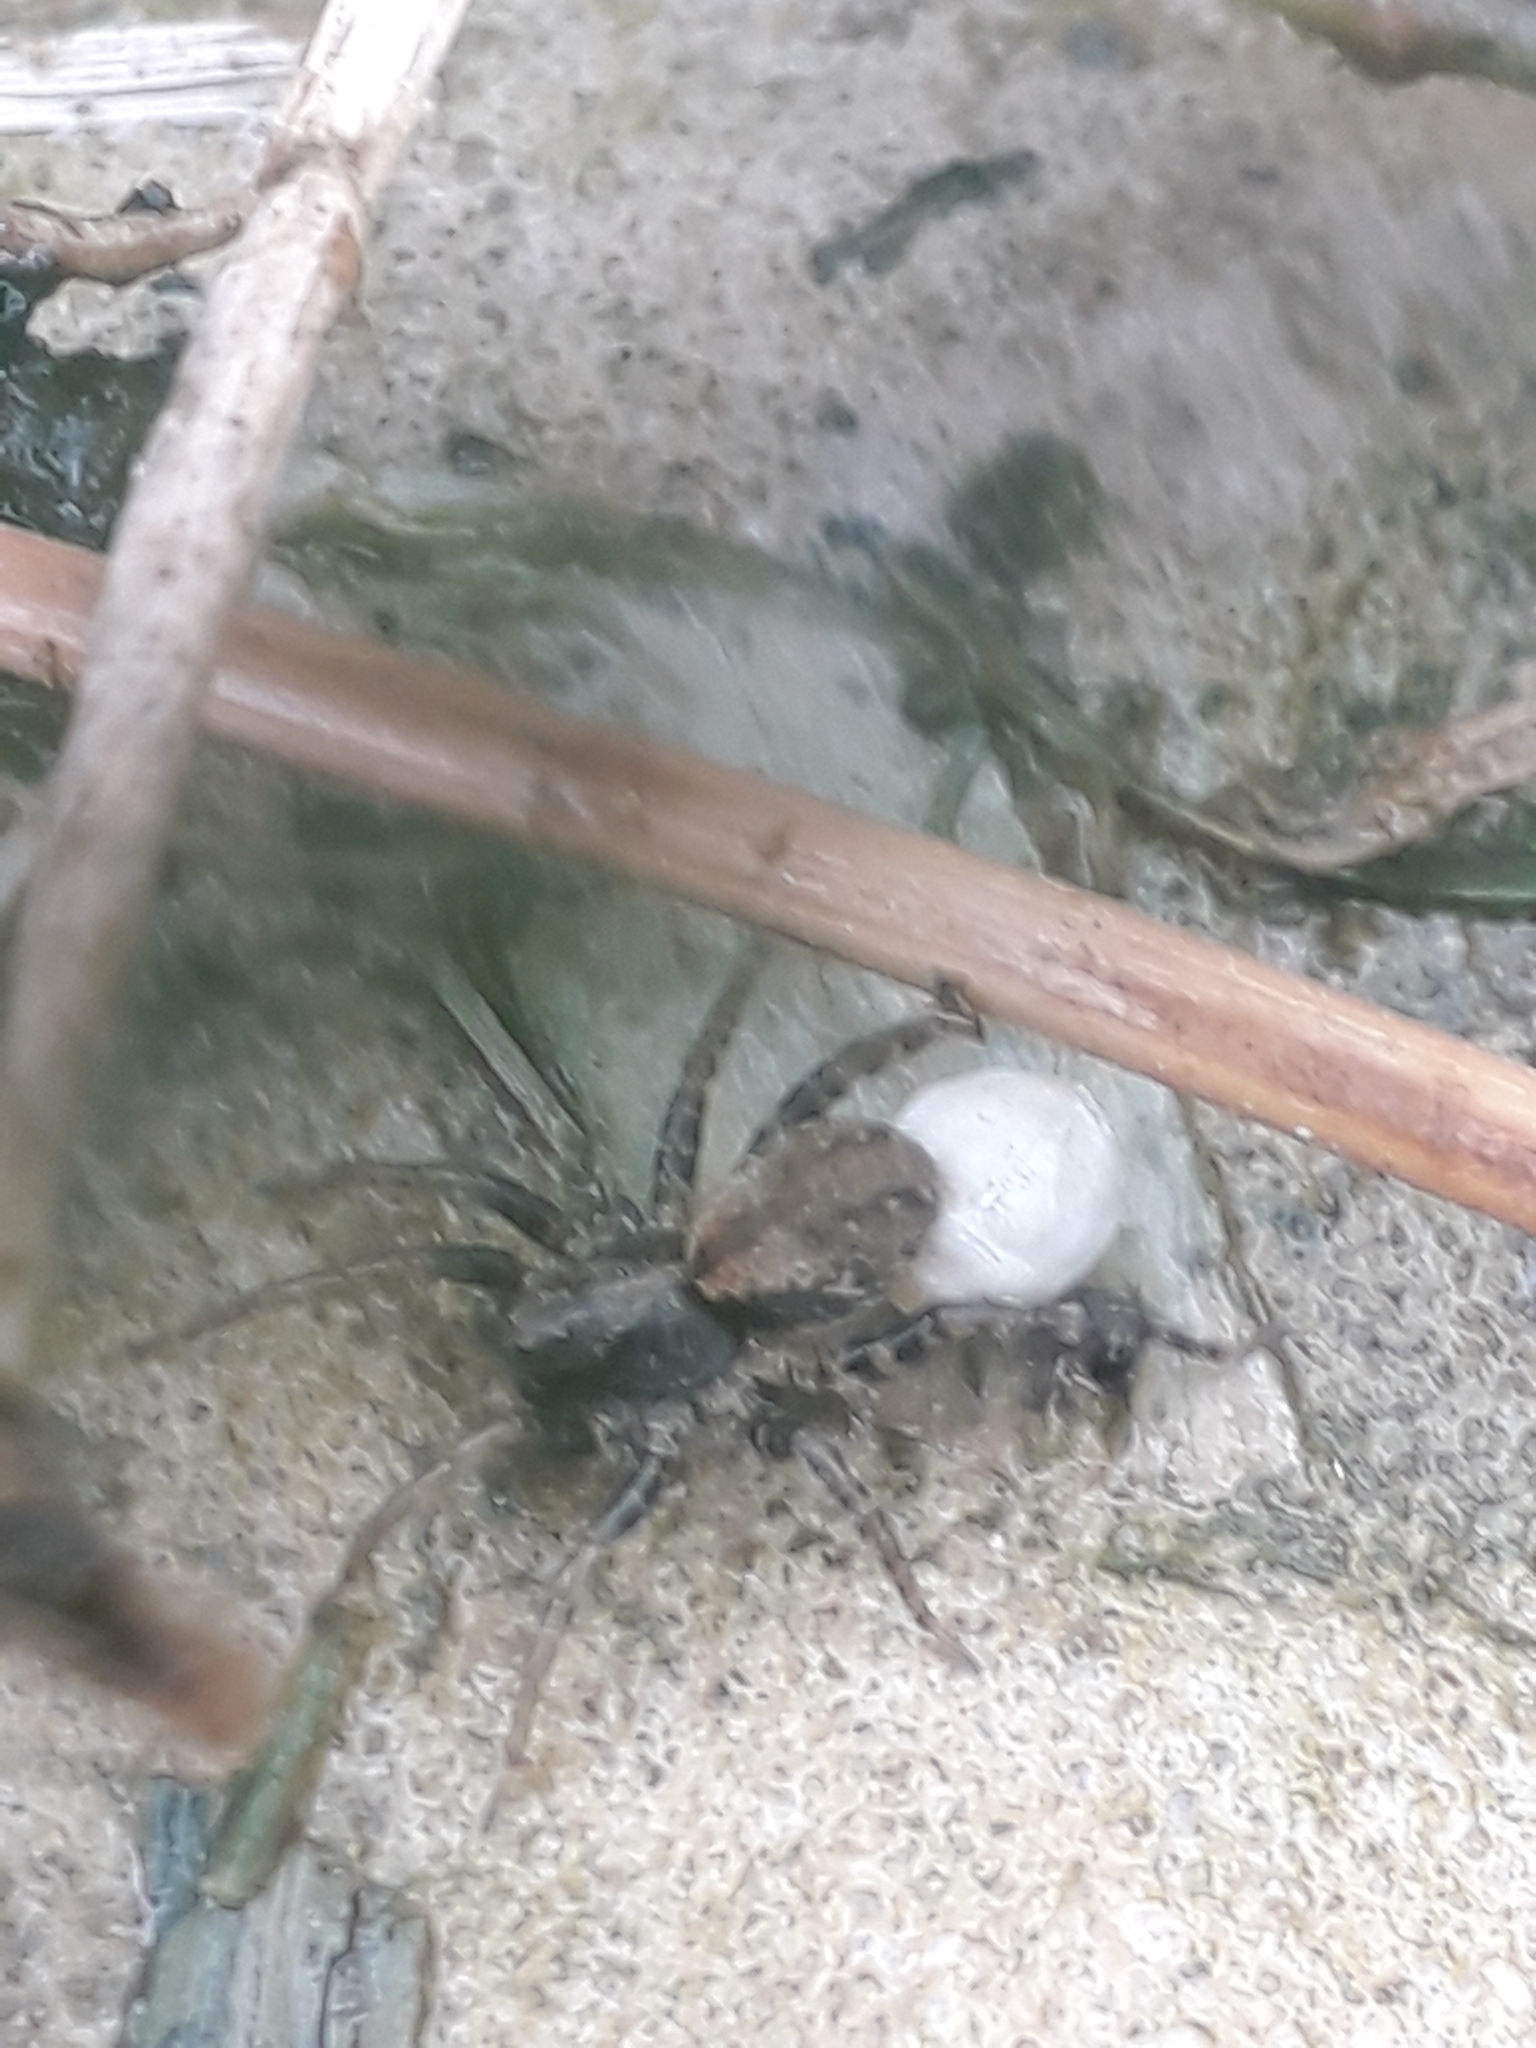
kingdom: Animalia
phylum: Arthropoda
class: Arachnida
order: Araneae
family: Lycosidae
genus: Abaycosa
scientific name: Abaycosa nanica
